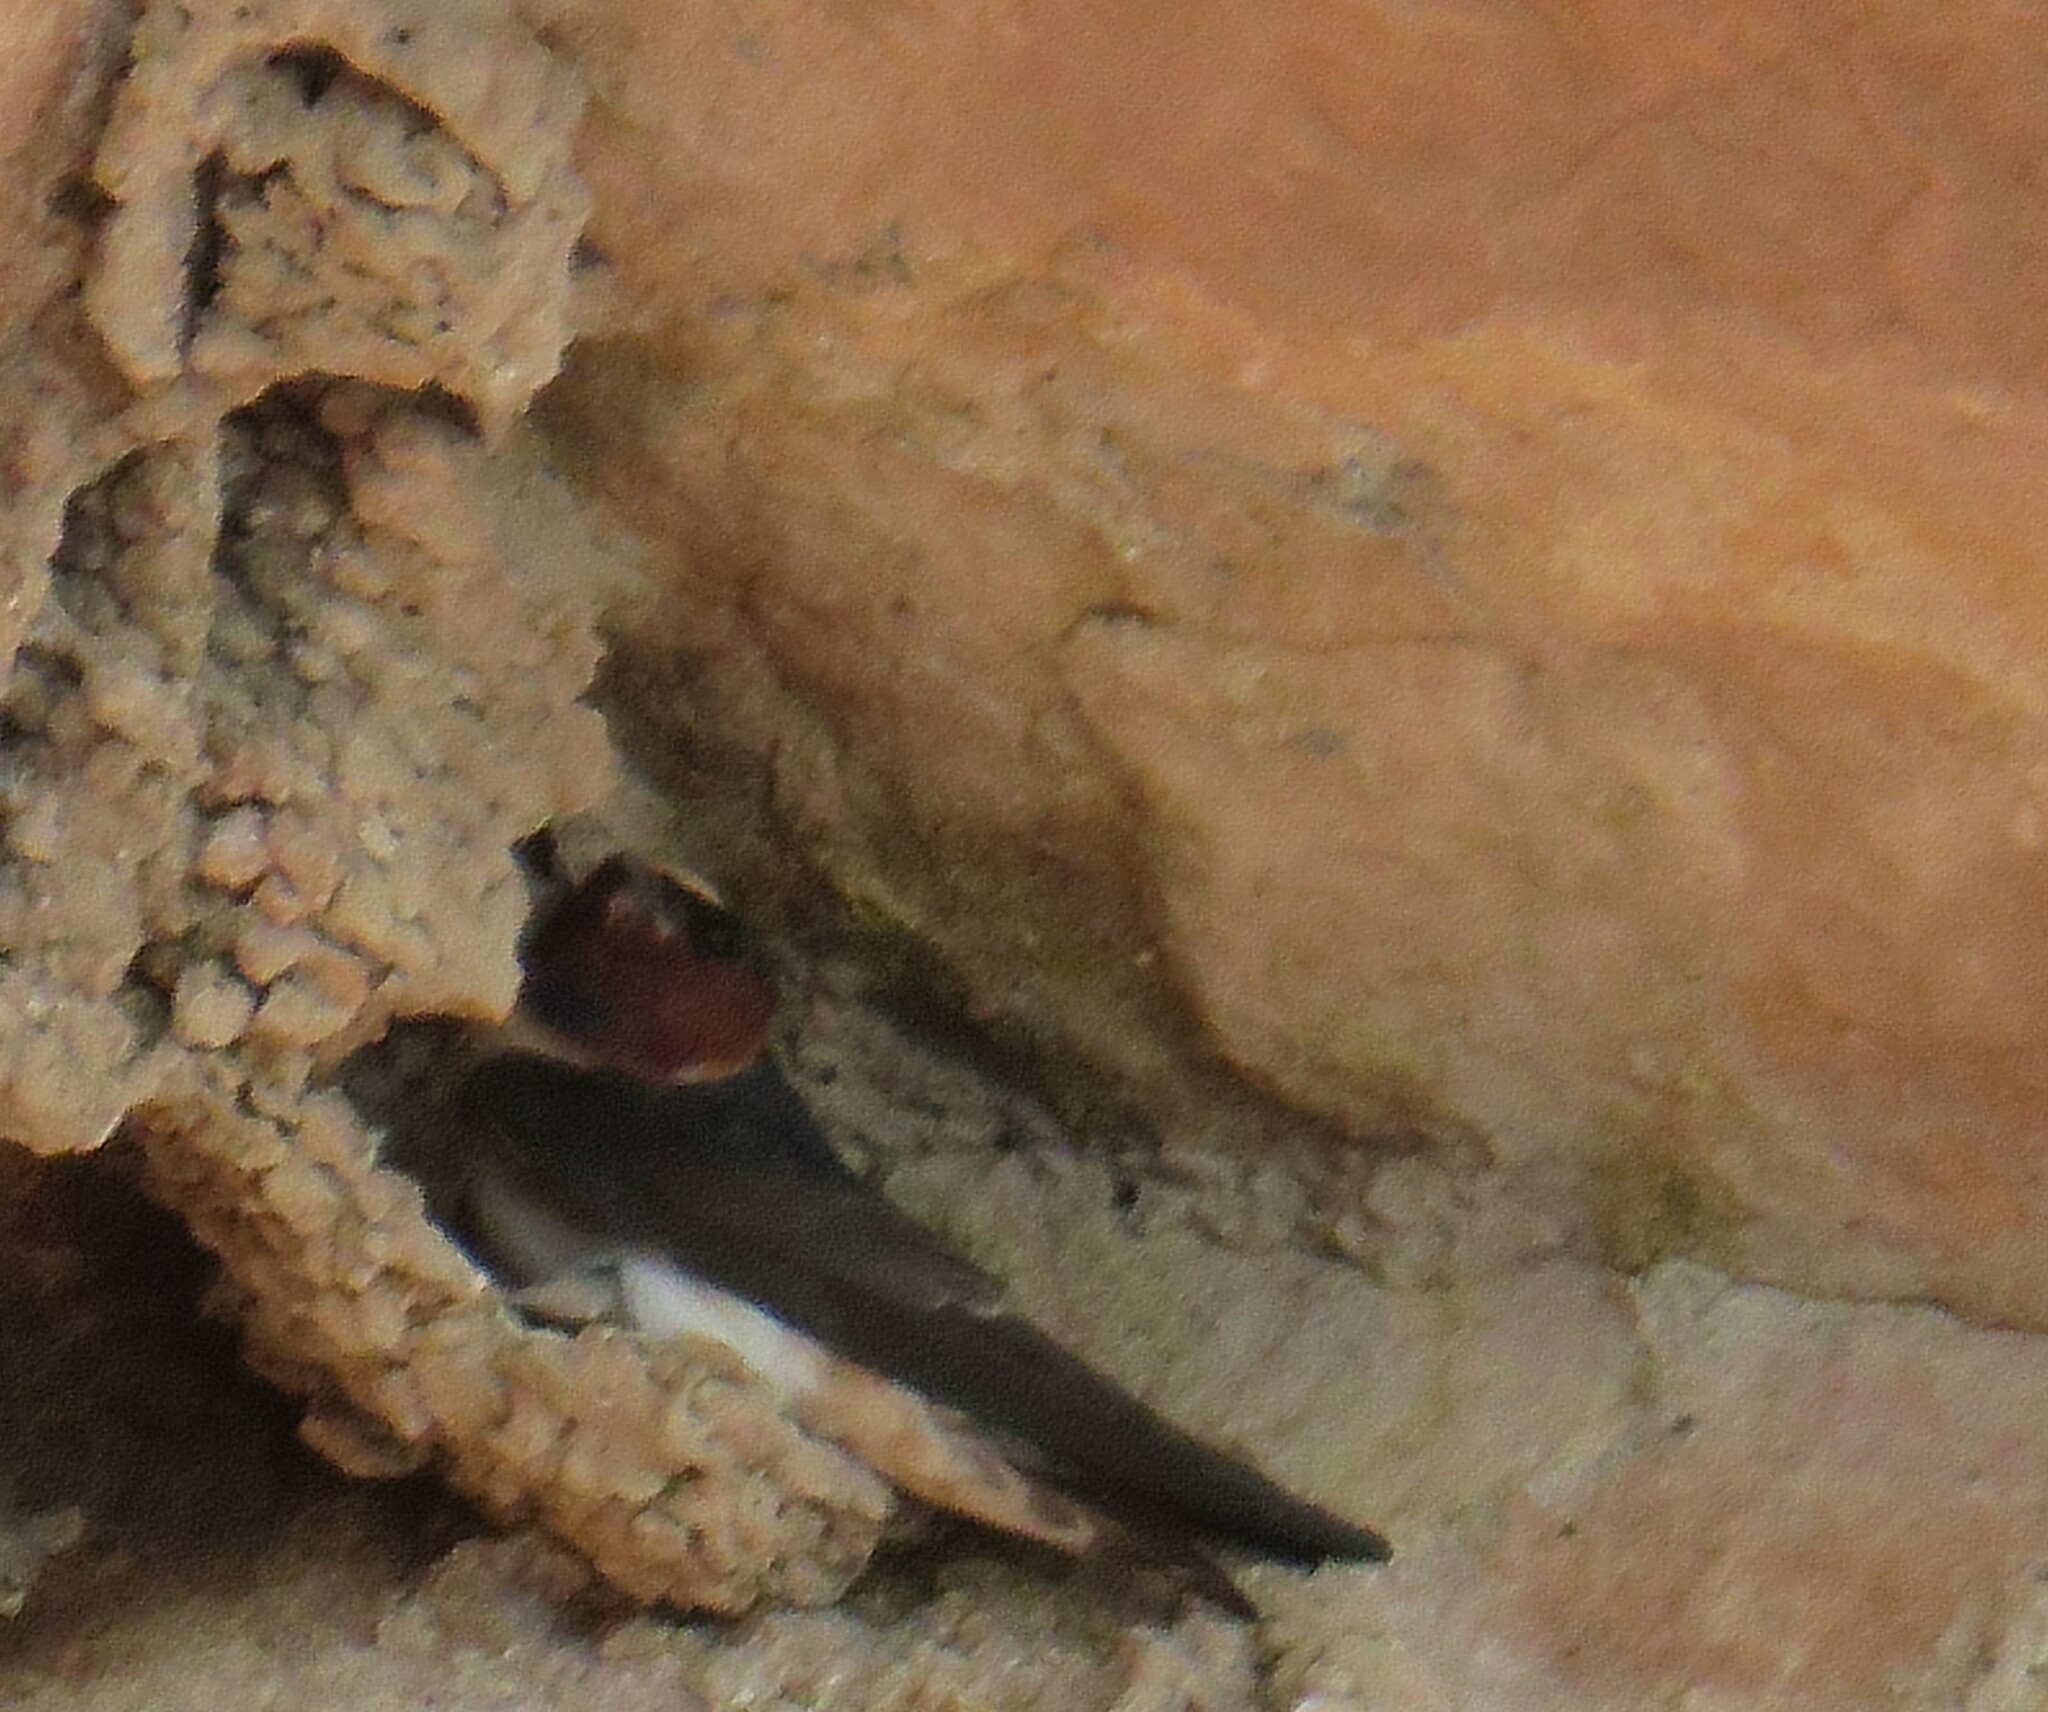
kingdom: Animalia
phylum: Chordata
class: Aves
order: Passeriformes
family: Hirundinidae
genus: Petrochelidon
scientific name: Petrochelidon pyrrhonota
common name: American cliff swallow
